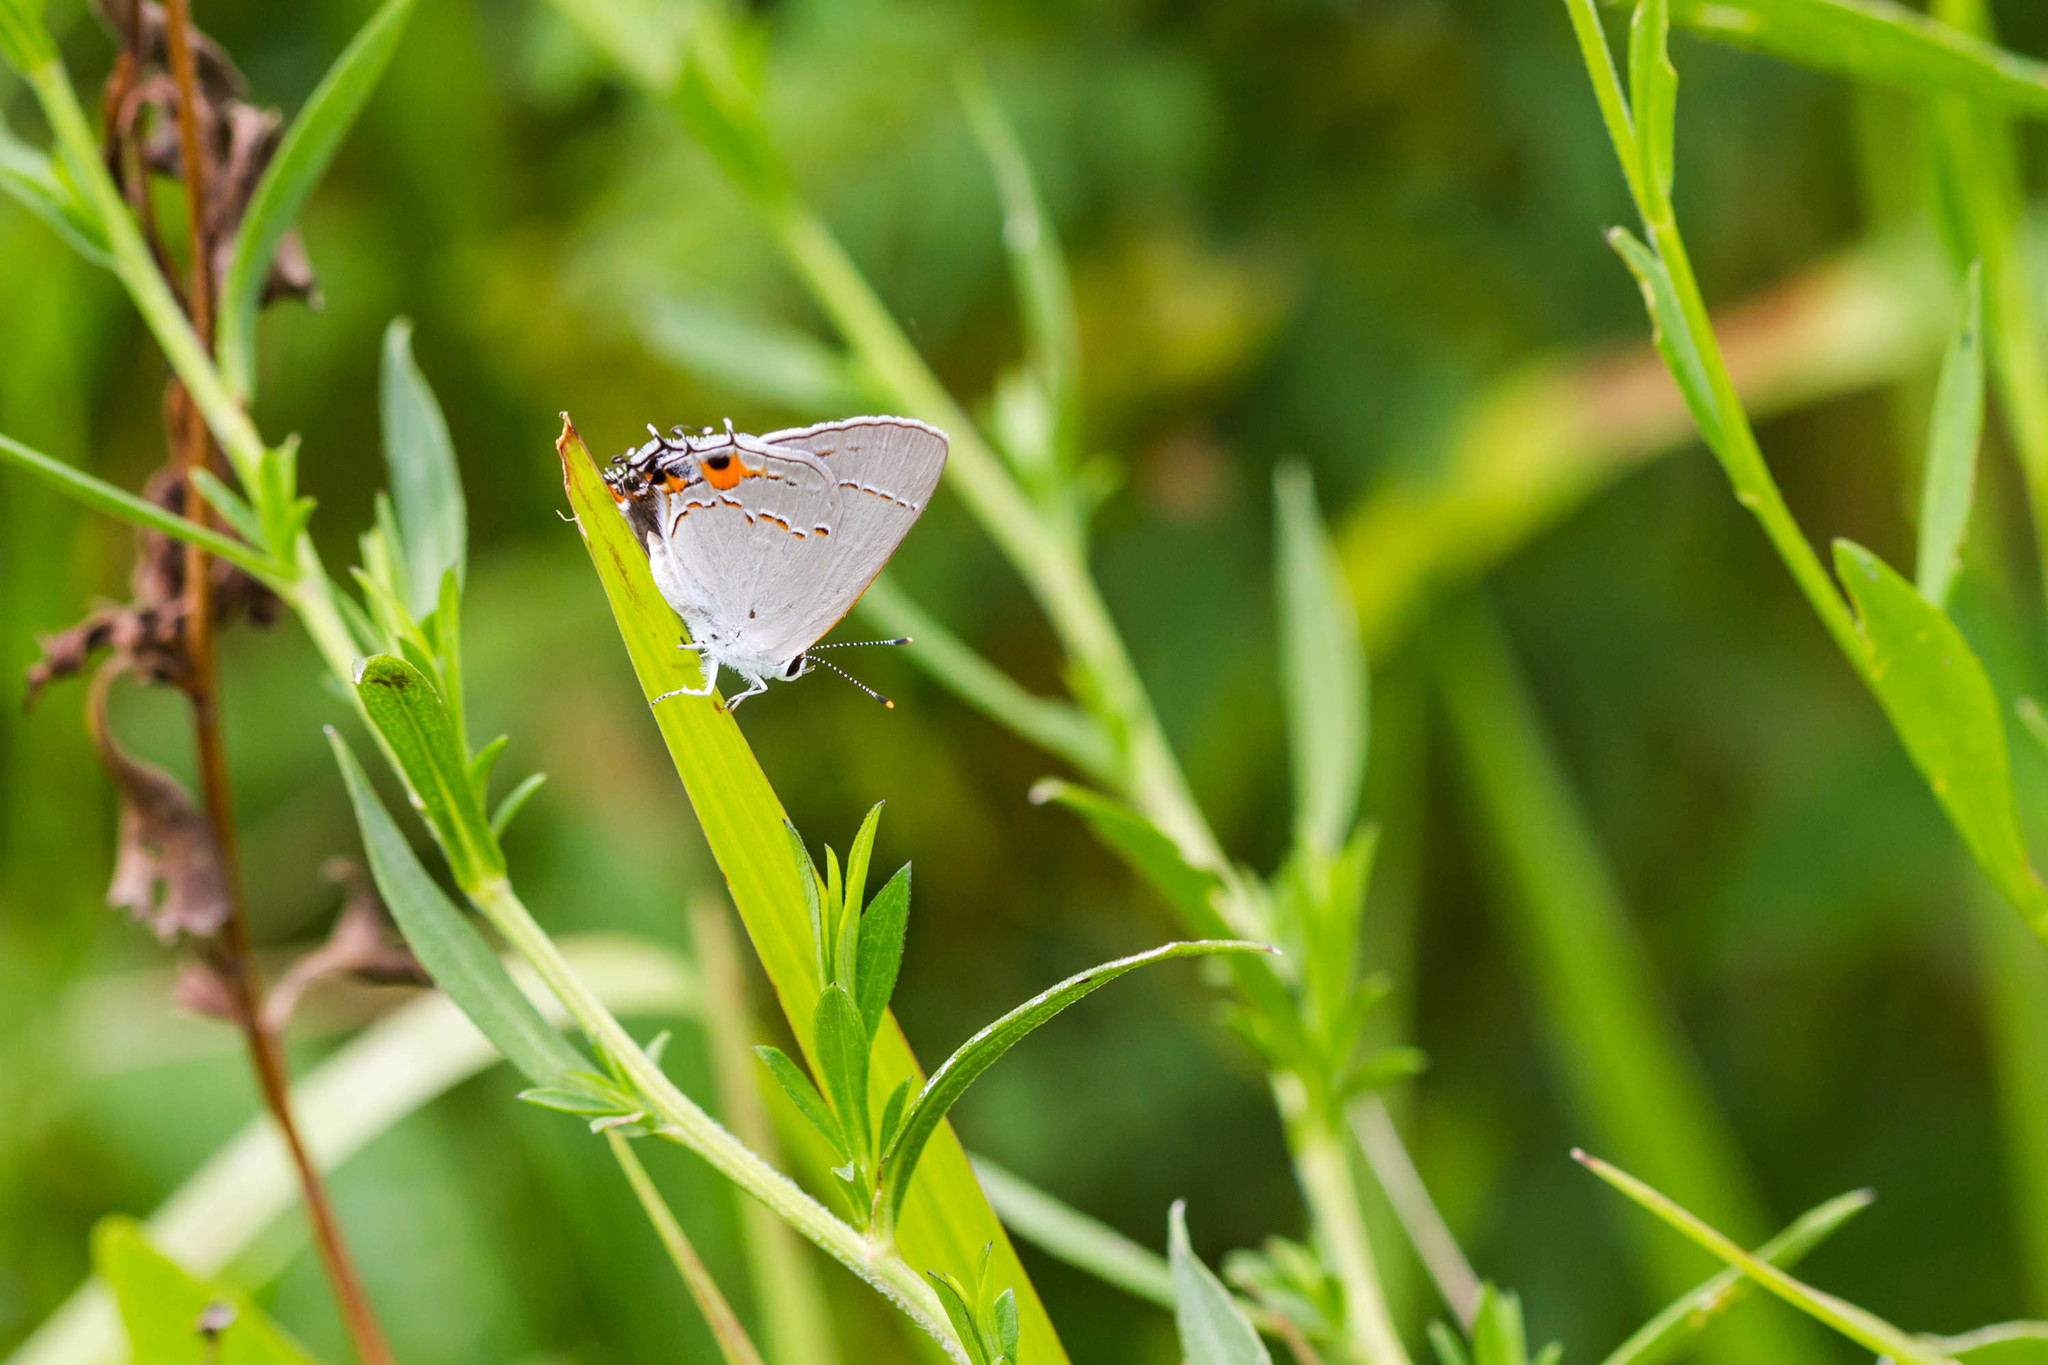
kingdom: Animalia
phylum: Arthropoda
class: Insecta
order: Lepidoptera
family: Lycaenidae
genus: Strymon
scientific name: Strymon melinus
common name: Gray hairstreak
